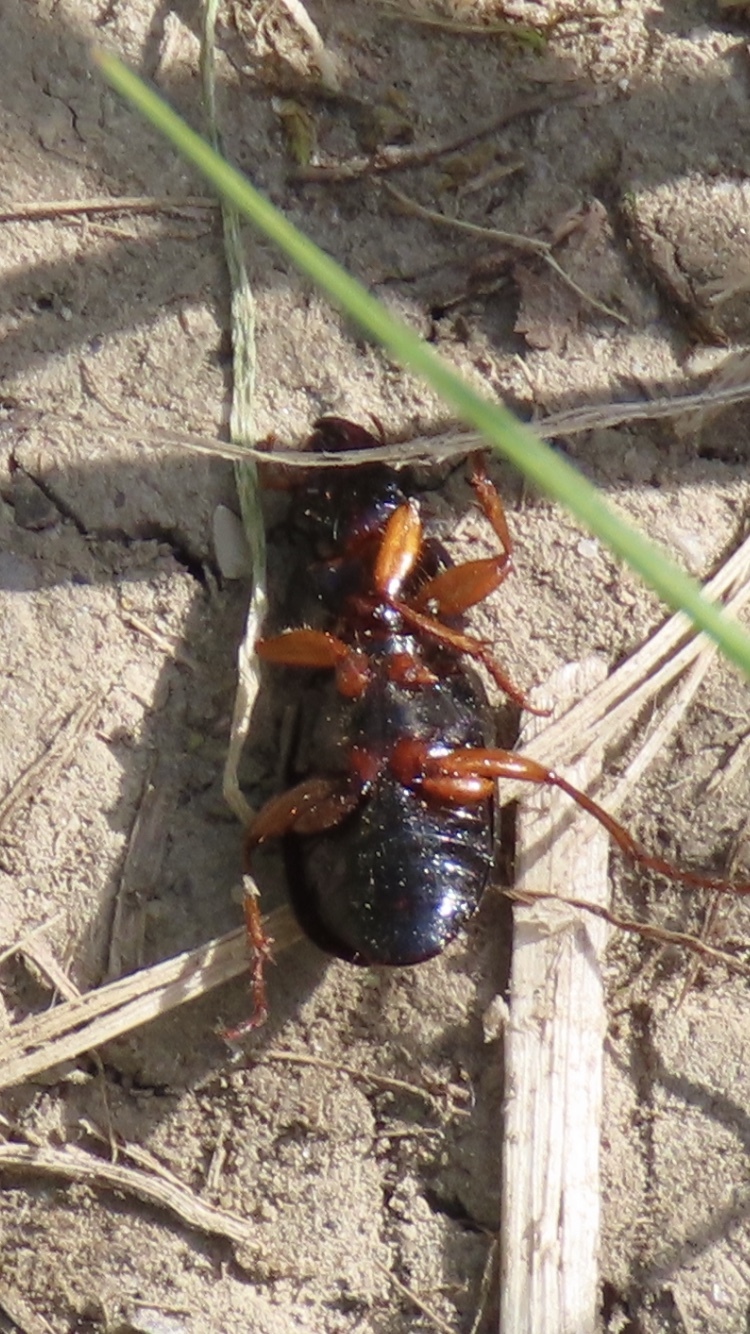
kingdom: Animalia
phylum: Arthropoda
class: Insecta
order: Coleoptera
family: Carabidae
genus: Harpalus
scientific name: Harpalus rufipes
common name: Strawberry harp ground beetle
